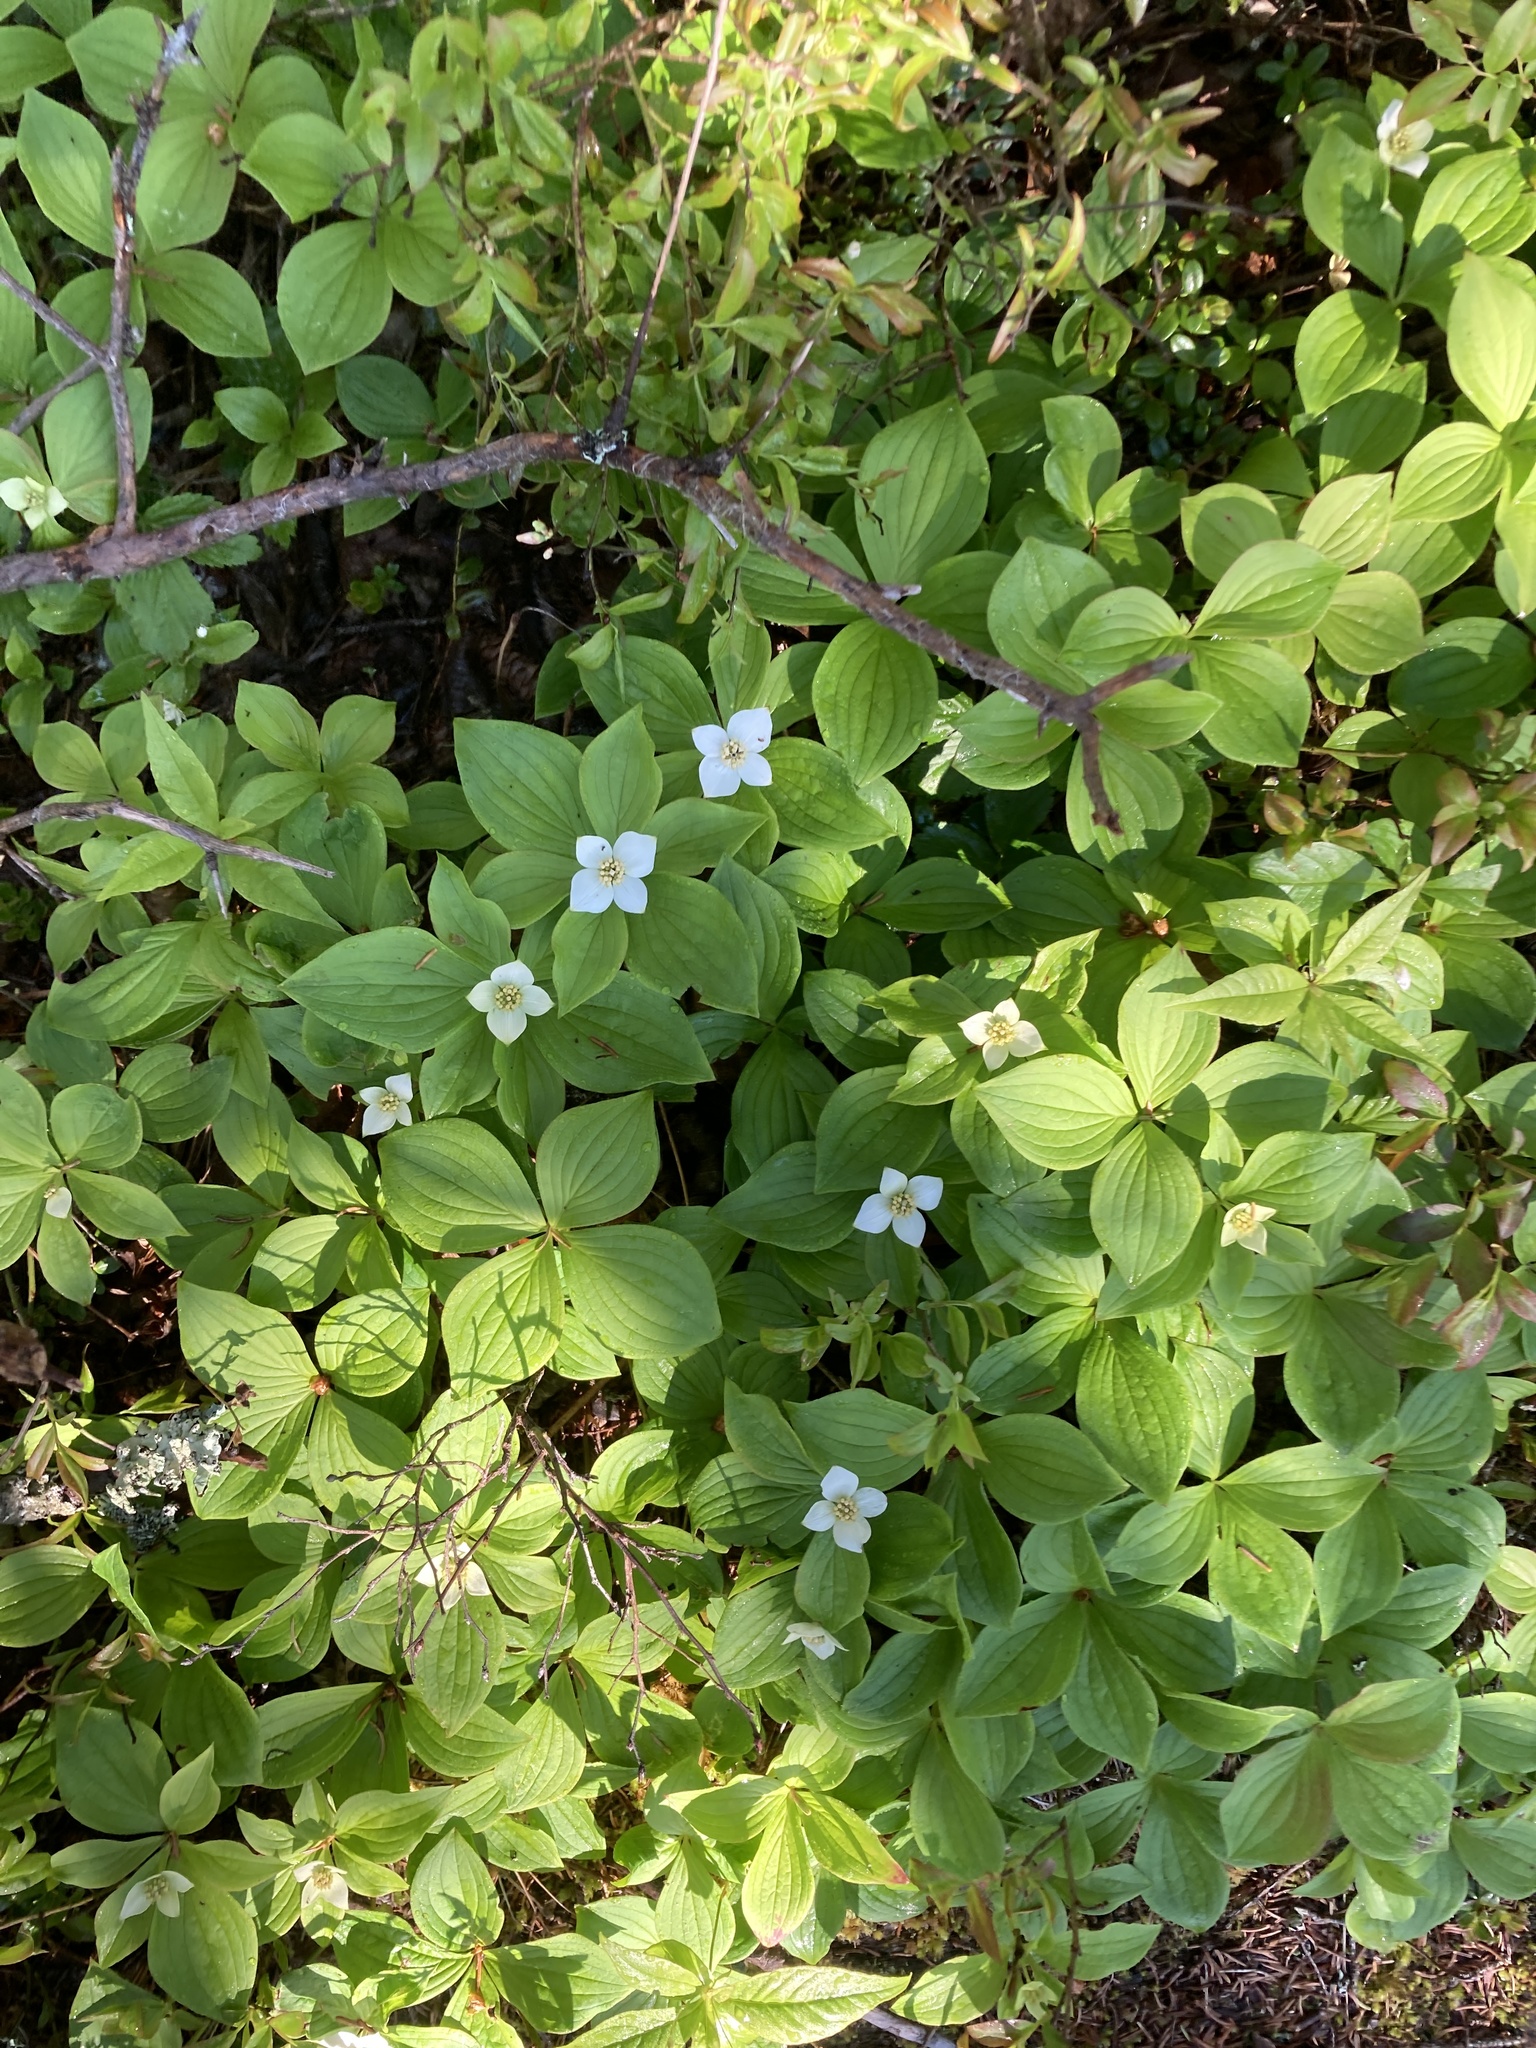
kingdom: Plantae
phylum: Tracheophyta
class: Magnoliopsida
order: Cornales
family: Cornaceae
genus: Cornus
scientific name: Cornus canadensis
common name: Creeping dogwood
